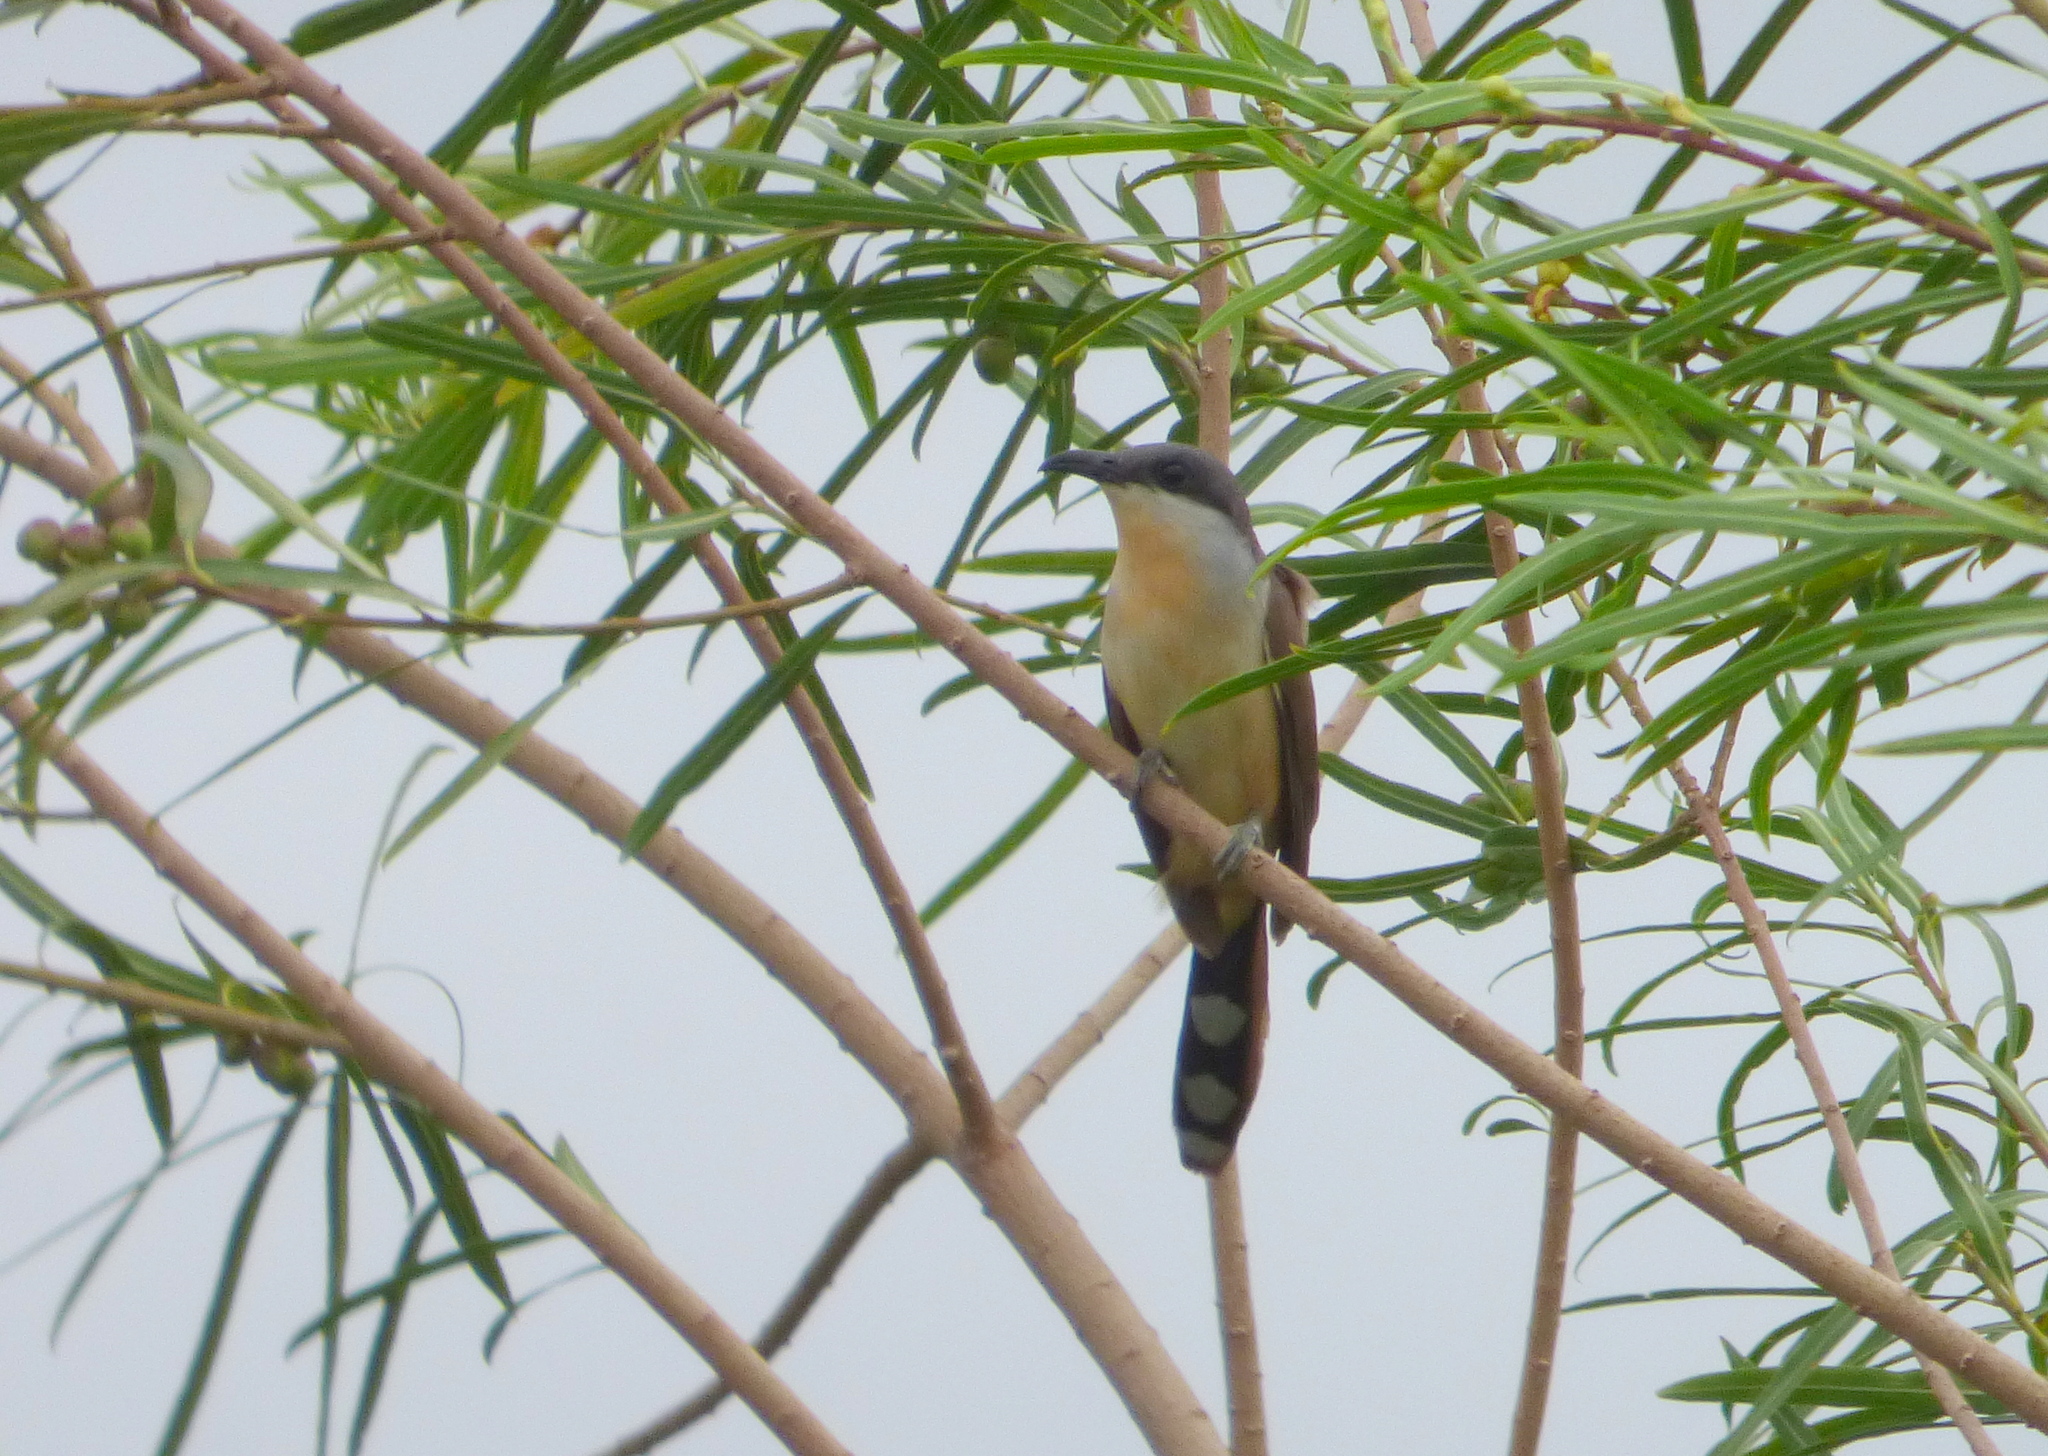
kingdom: Animalia
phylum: Chordata
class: Aves
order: Cuculiformes
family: Cuculidae
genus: Coccyzus
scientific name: Coccyzus melacoryphus
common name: Dark-billed cuckoo
